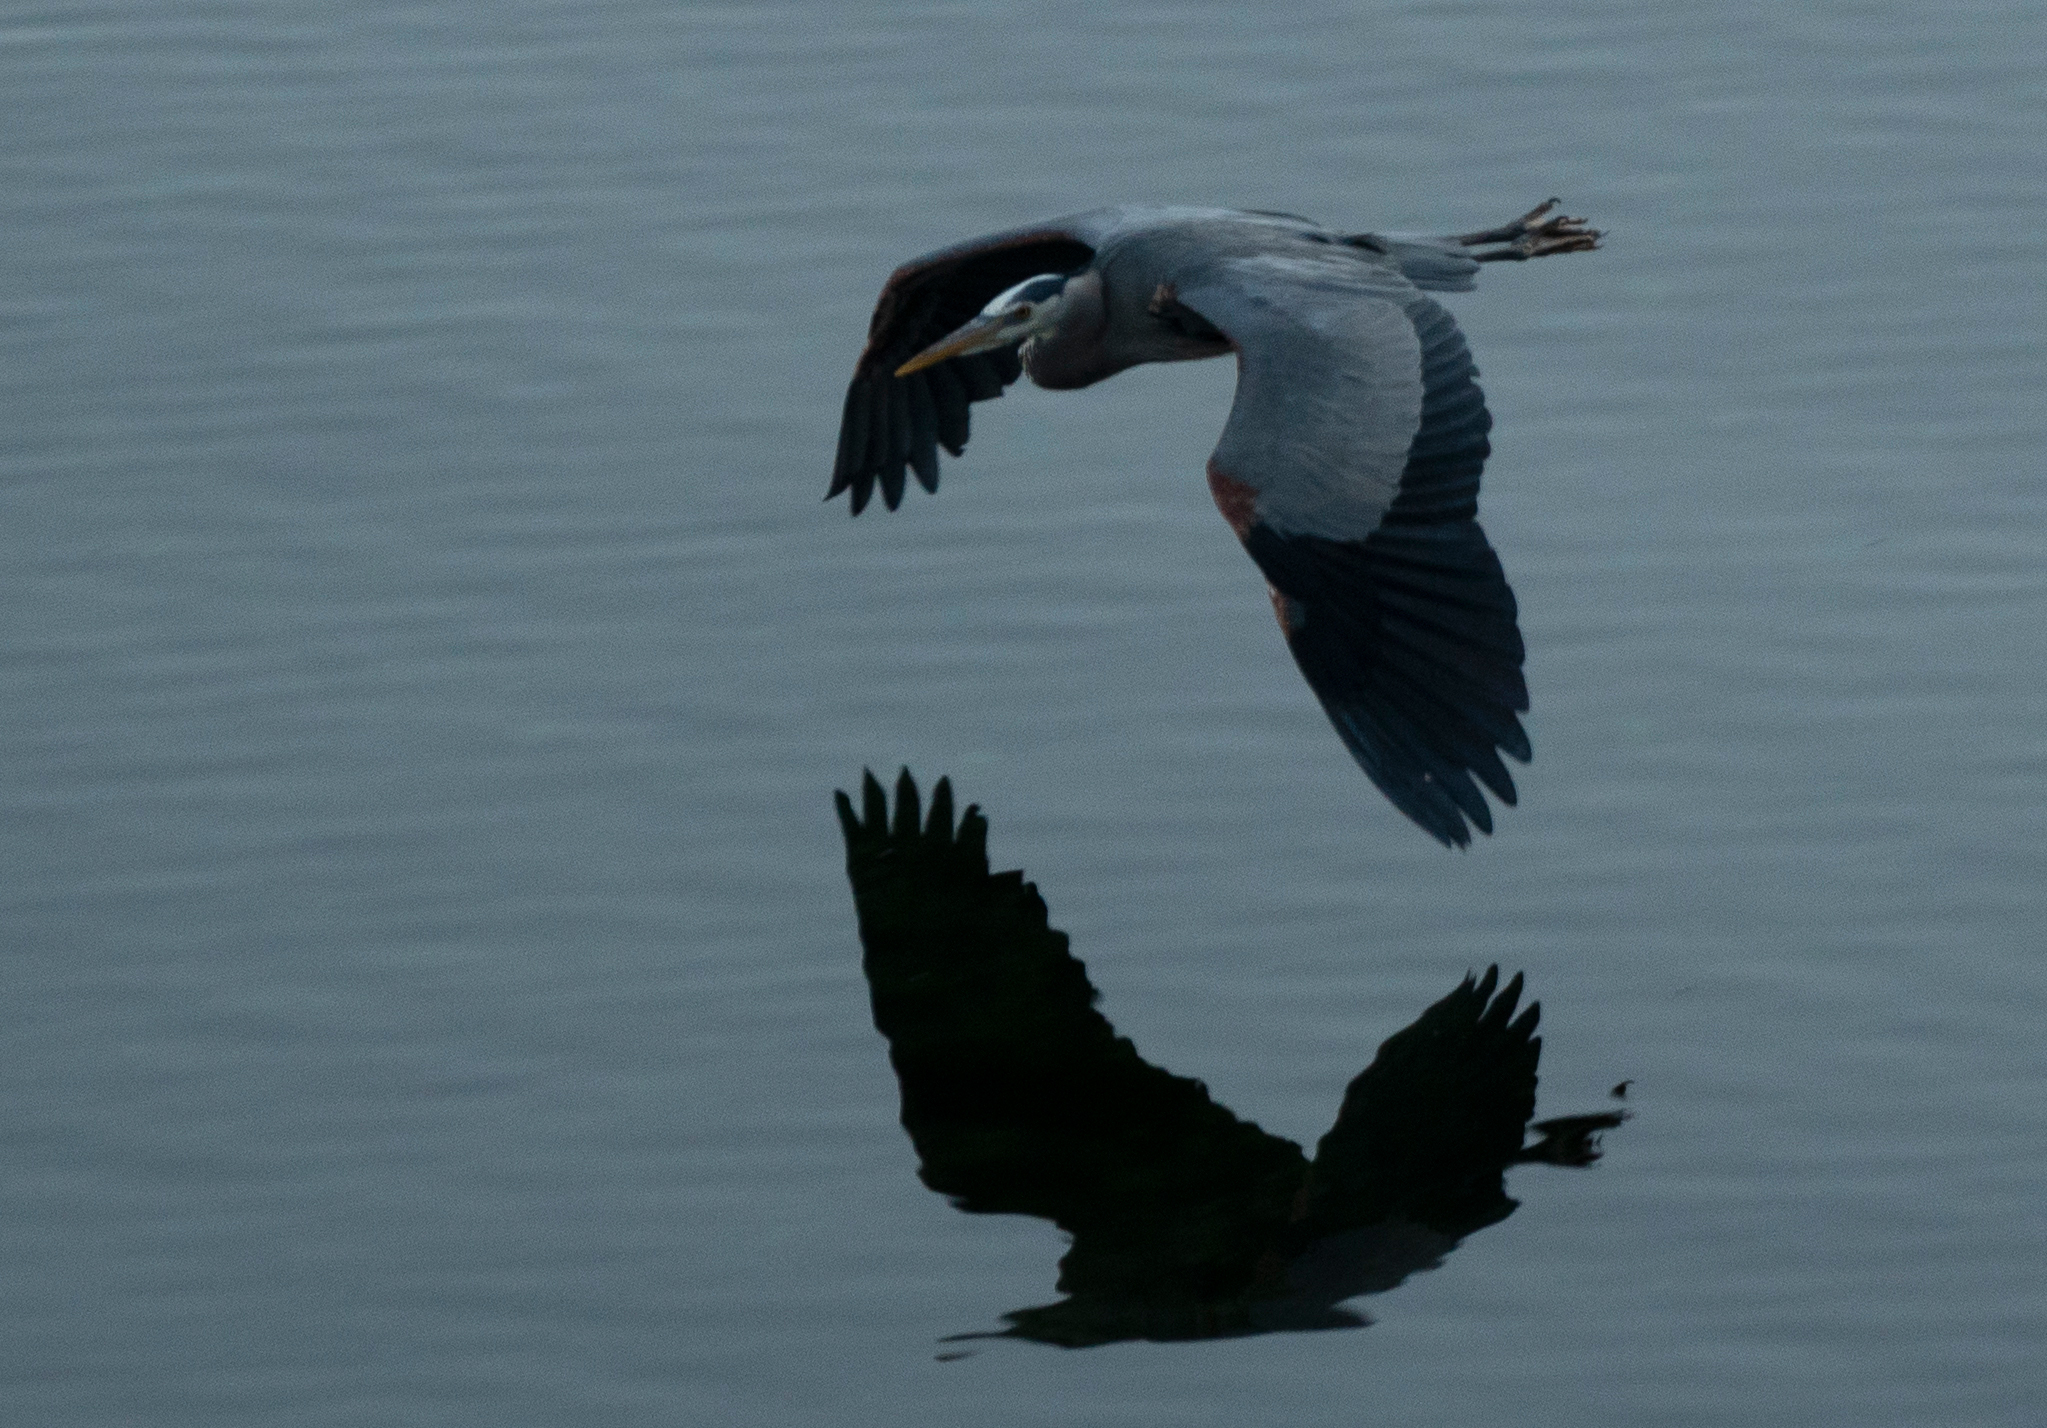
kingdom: Animalia
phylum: Chordata
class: Aves
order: Pelecaniformes
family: Ardeidae
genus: Ardea
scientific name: Ardea herodias
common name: Great blue heron
